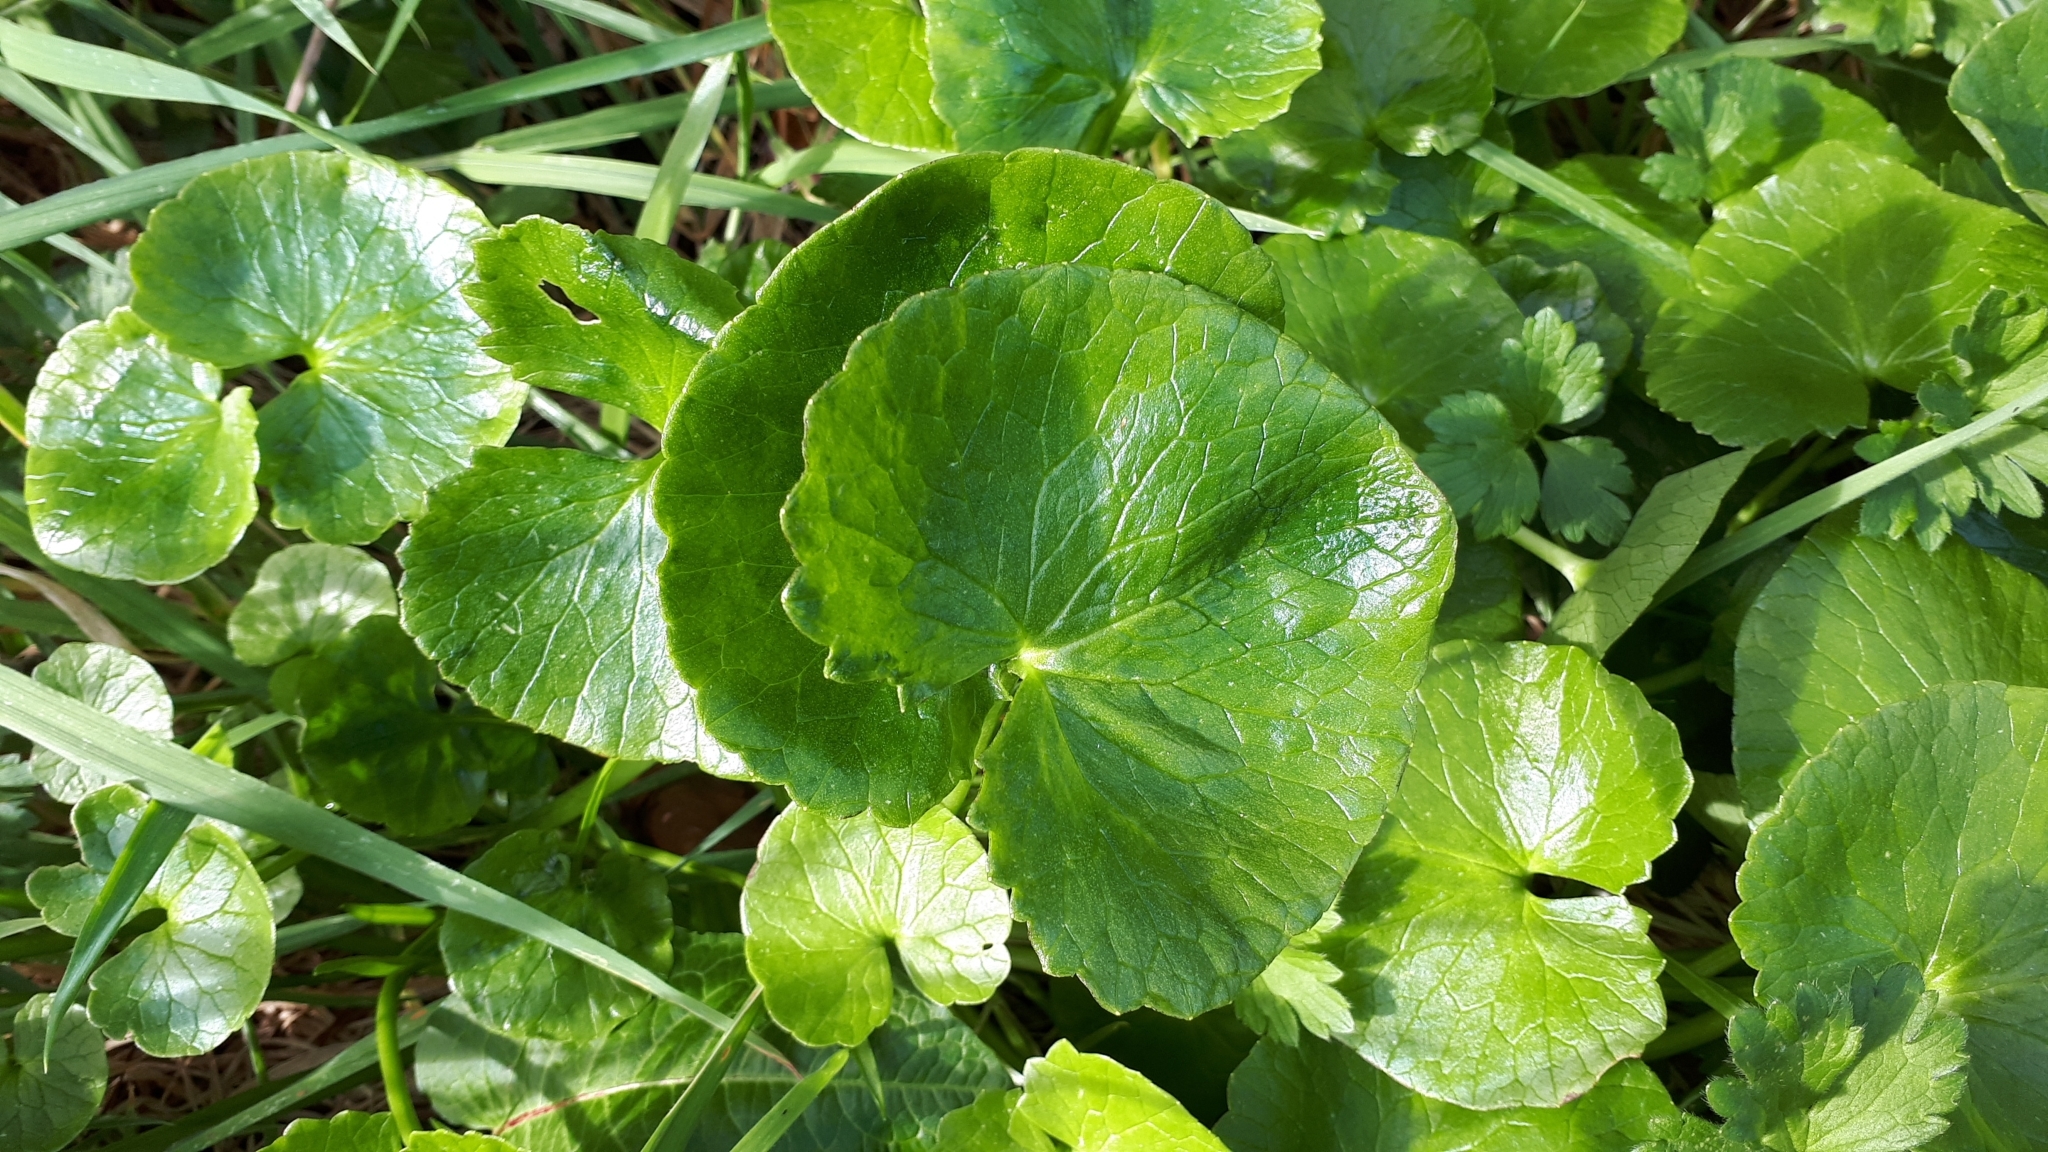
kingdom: Plantae
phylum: Tracheophyta
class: Magnoliopsida
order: Ranunculales
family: Ranunculaceae
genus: Ficaria
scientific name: Ficaria verna
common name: Lesser celandine
